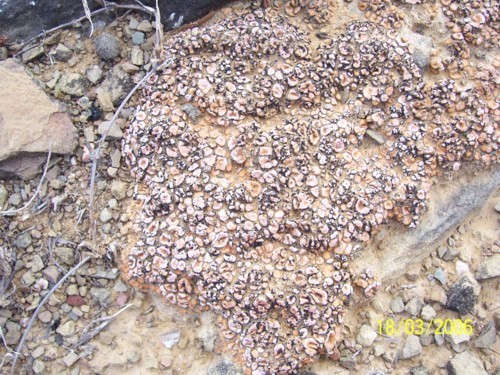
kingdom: Fungi
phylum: Ascomycota
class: Lecanoromycetes
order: Lecanorales
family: Psoraceae
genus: Psora
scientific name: Psora crenata
